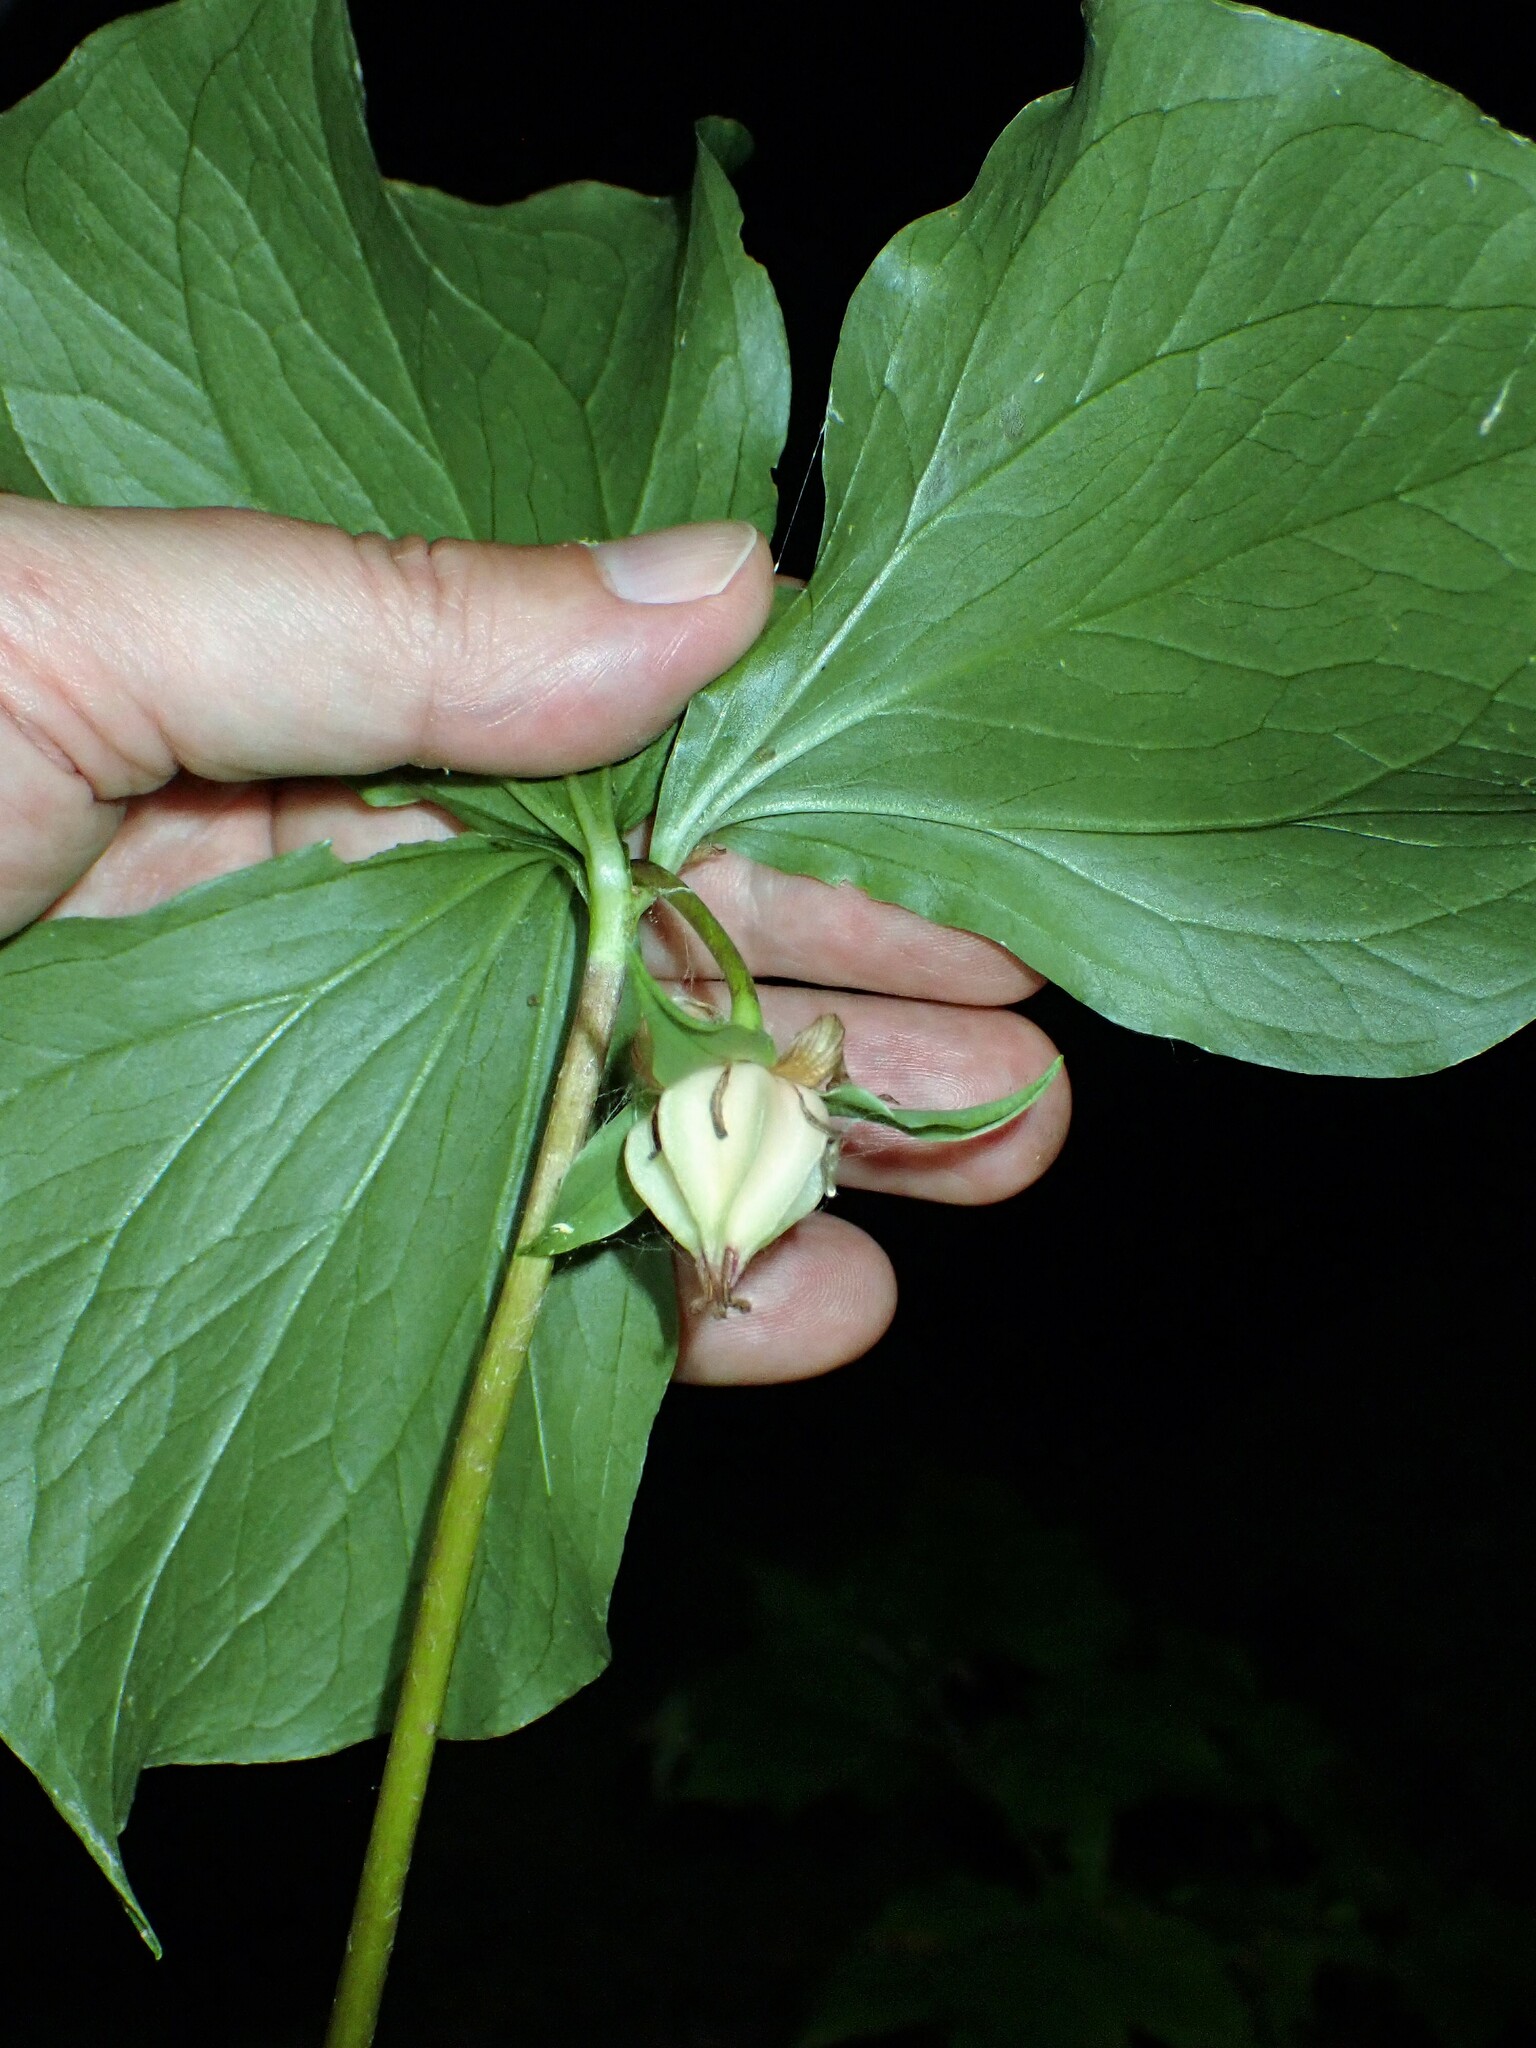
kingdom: Plantae
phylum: Tracheophyta
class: Liliopsida
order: Liliales
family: Melanthiaceae
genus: Trillium
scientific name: Trillium cernuum
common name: Nodding trillium
